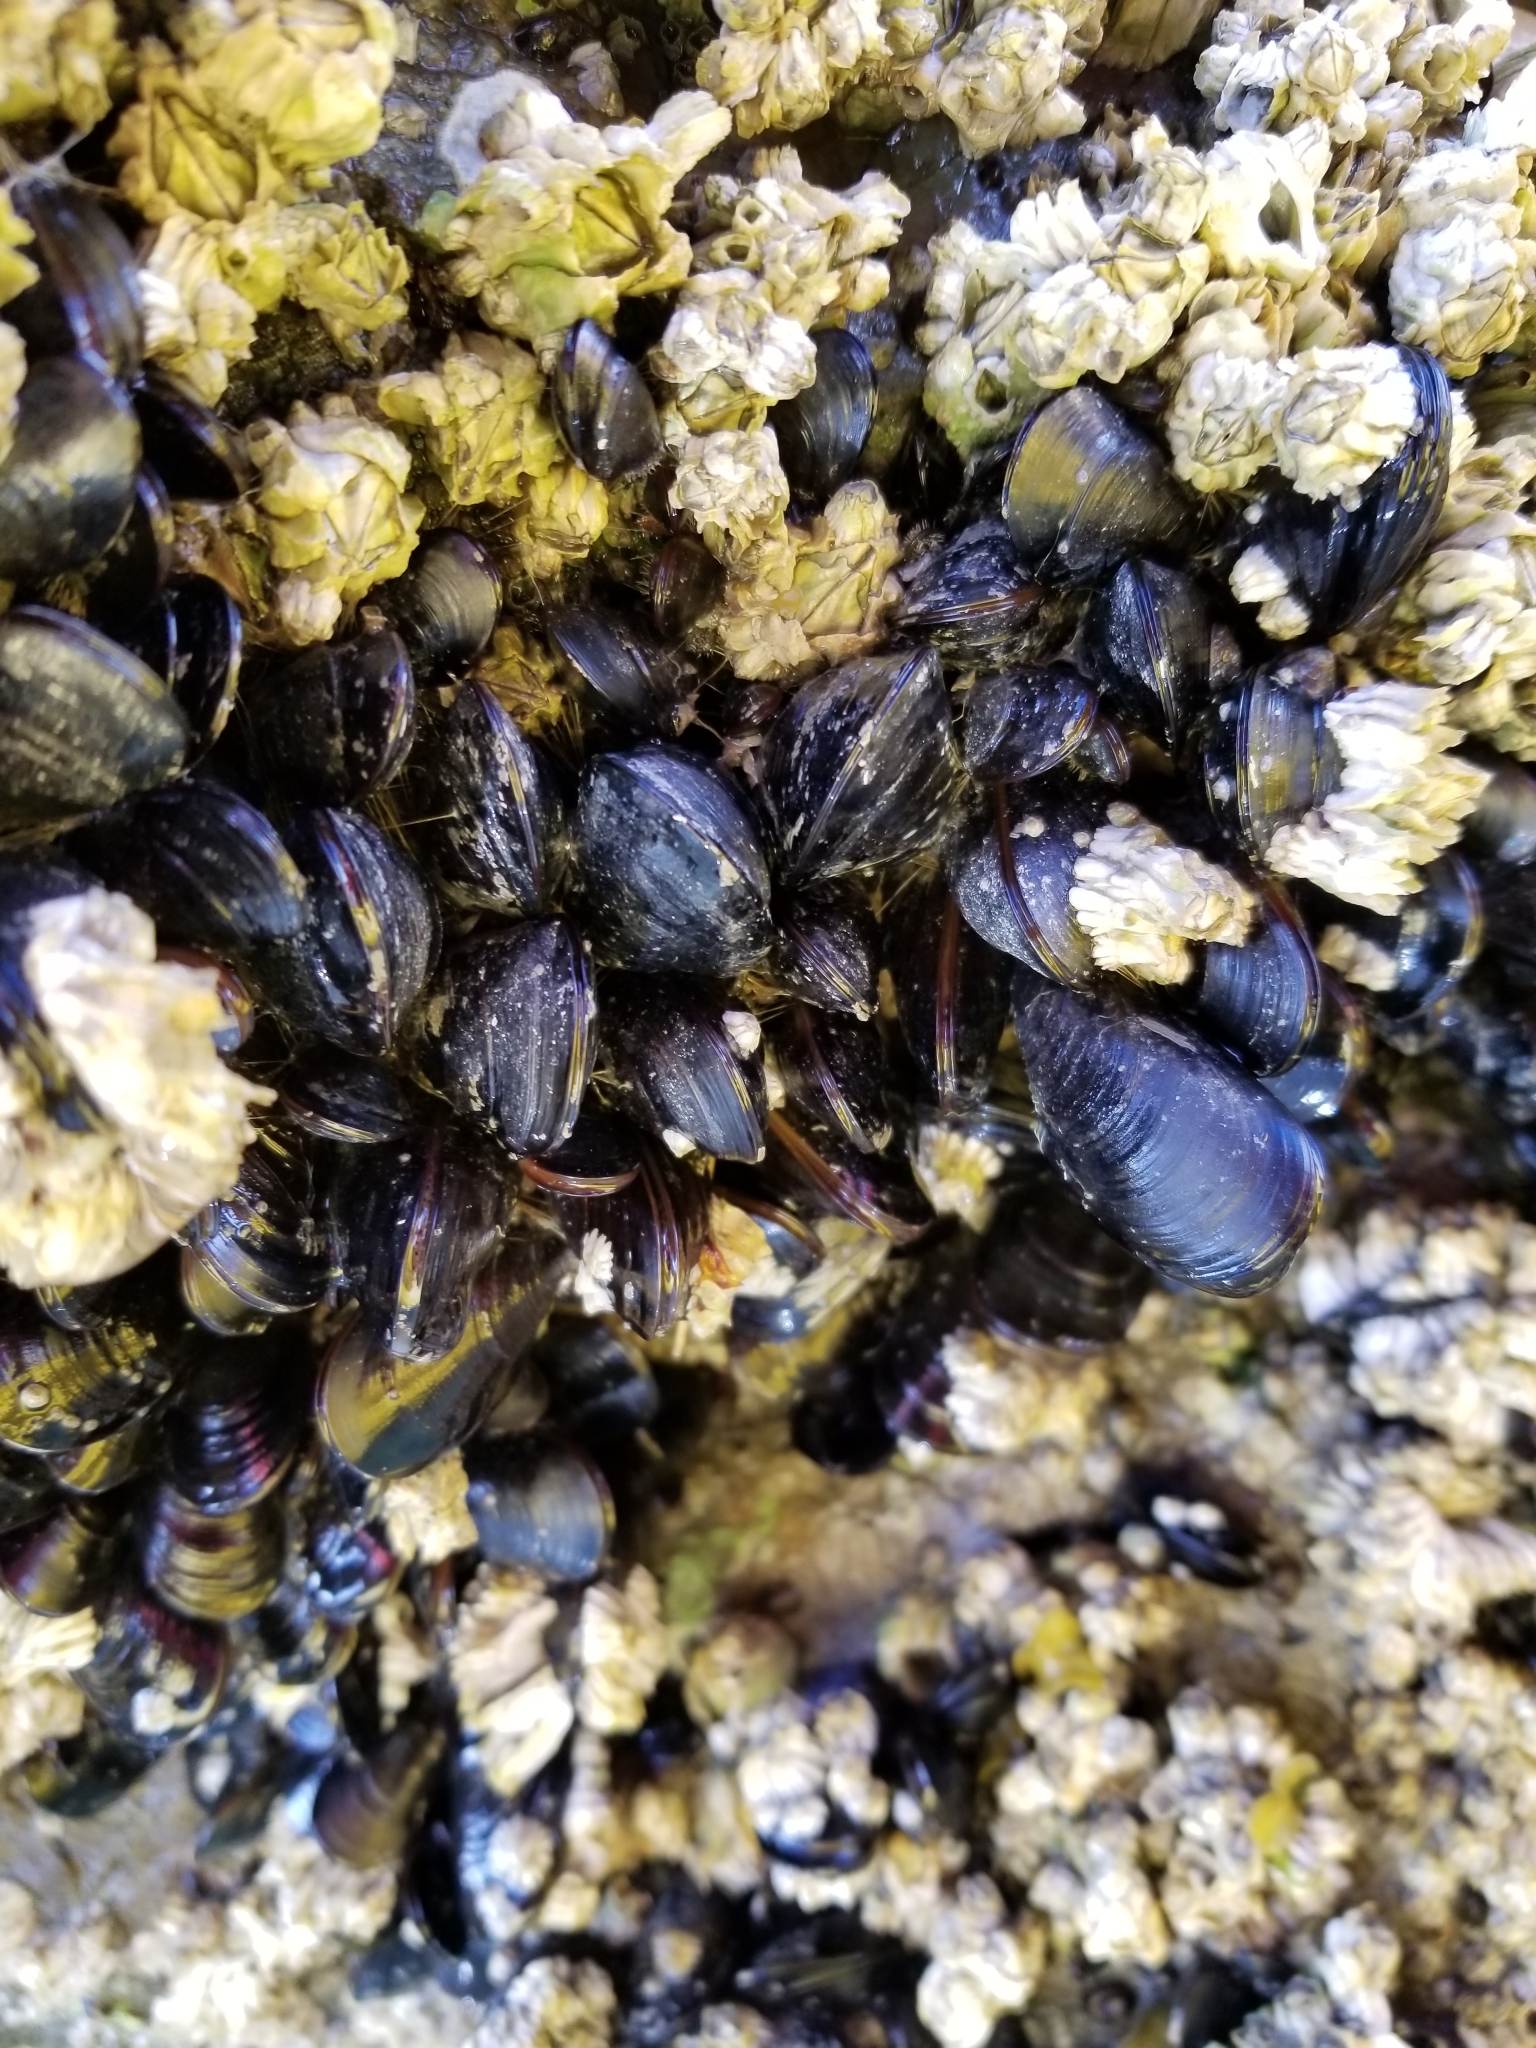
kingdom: Animalia
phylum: Mollusca
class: Bivalvia
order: Mytilida
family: Mytilidae
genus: Mytilus
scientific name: Mytilus trossulus
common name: Northern blue mussel
